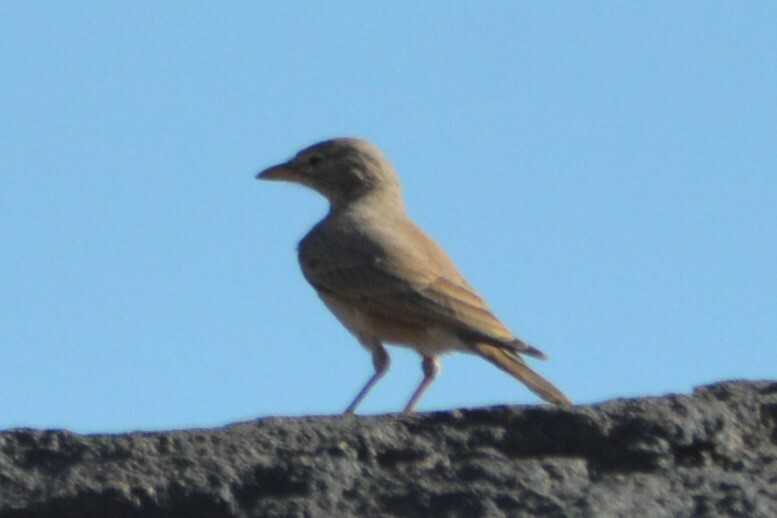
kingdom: Animalia
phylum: Chordata
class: Aves
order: Passeriformes
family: Alaudidae
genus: Ammomanes
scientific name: Ammomanes deserti
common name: Desert lark
